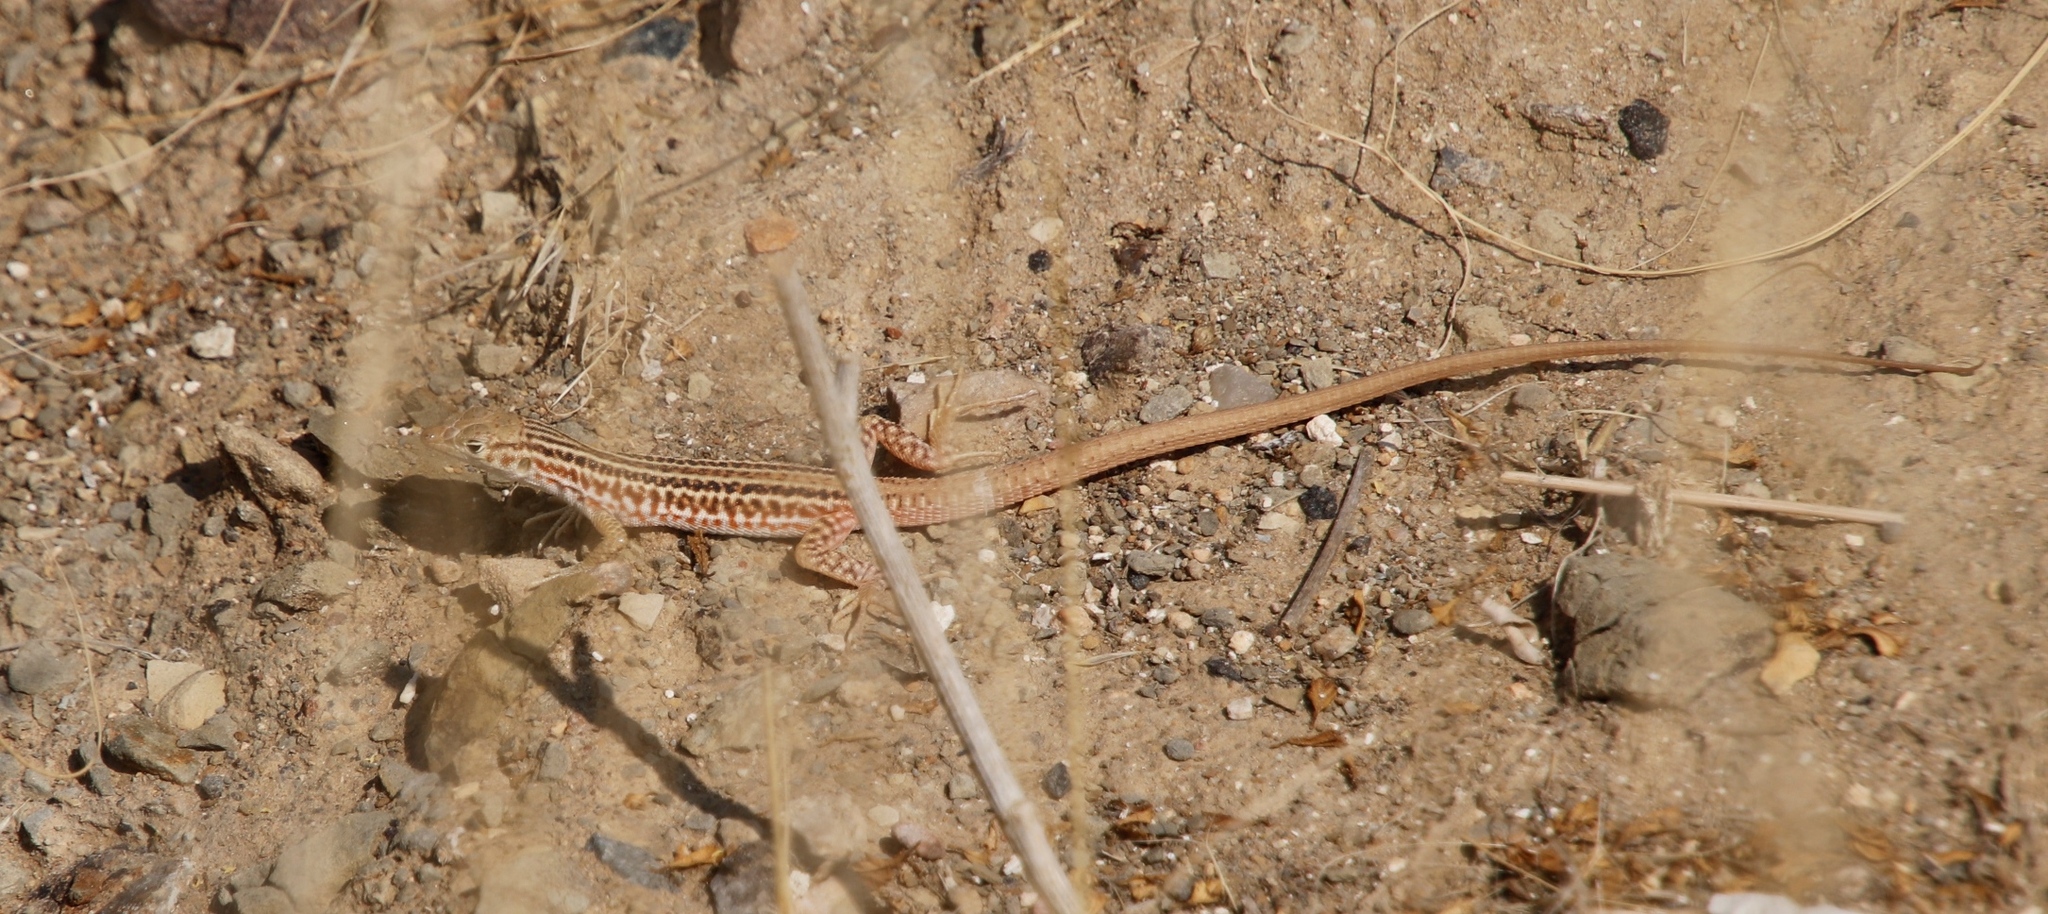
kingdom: Animalia
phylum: Chordata
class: Squamata
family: Lacertidae
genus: Pedioplanis
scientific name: Pedioplanis namaquensis
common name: Namaqua sand lizard
